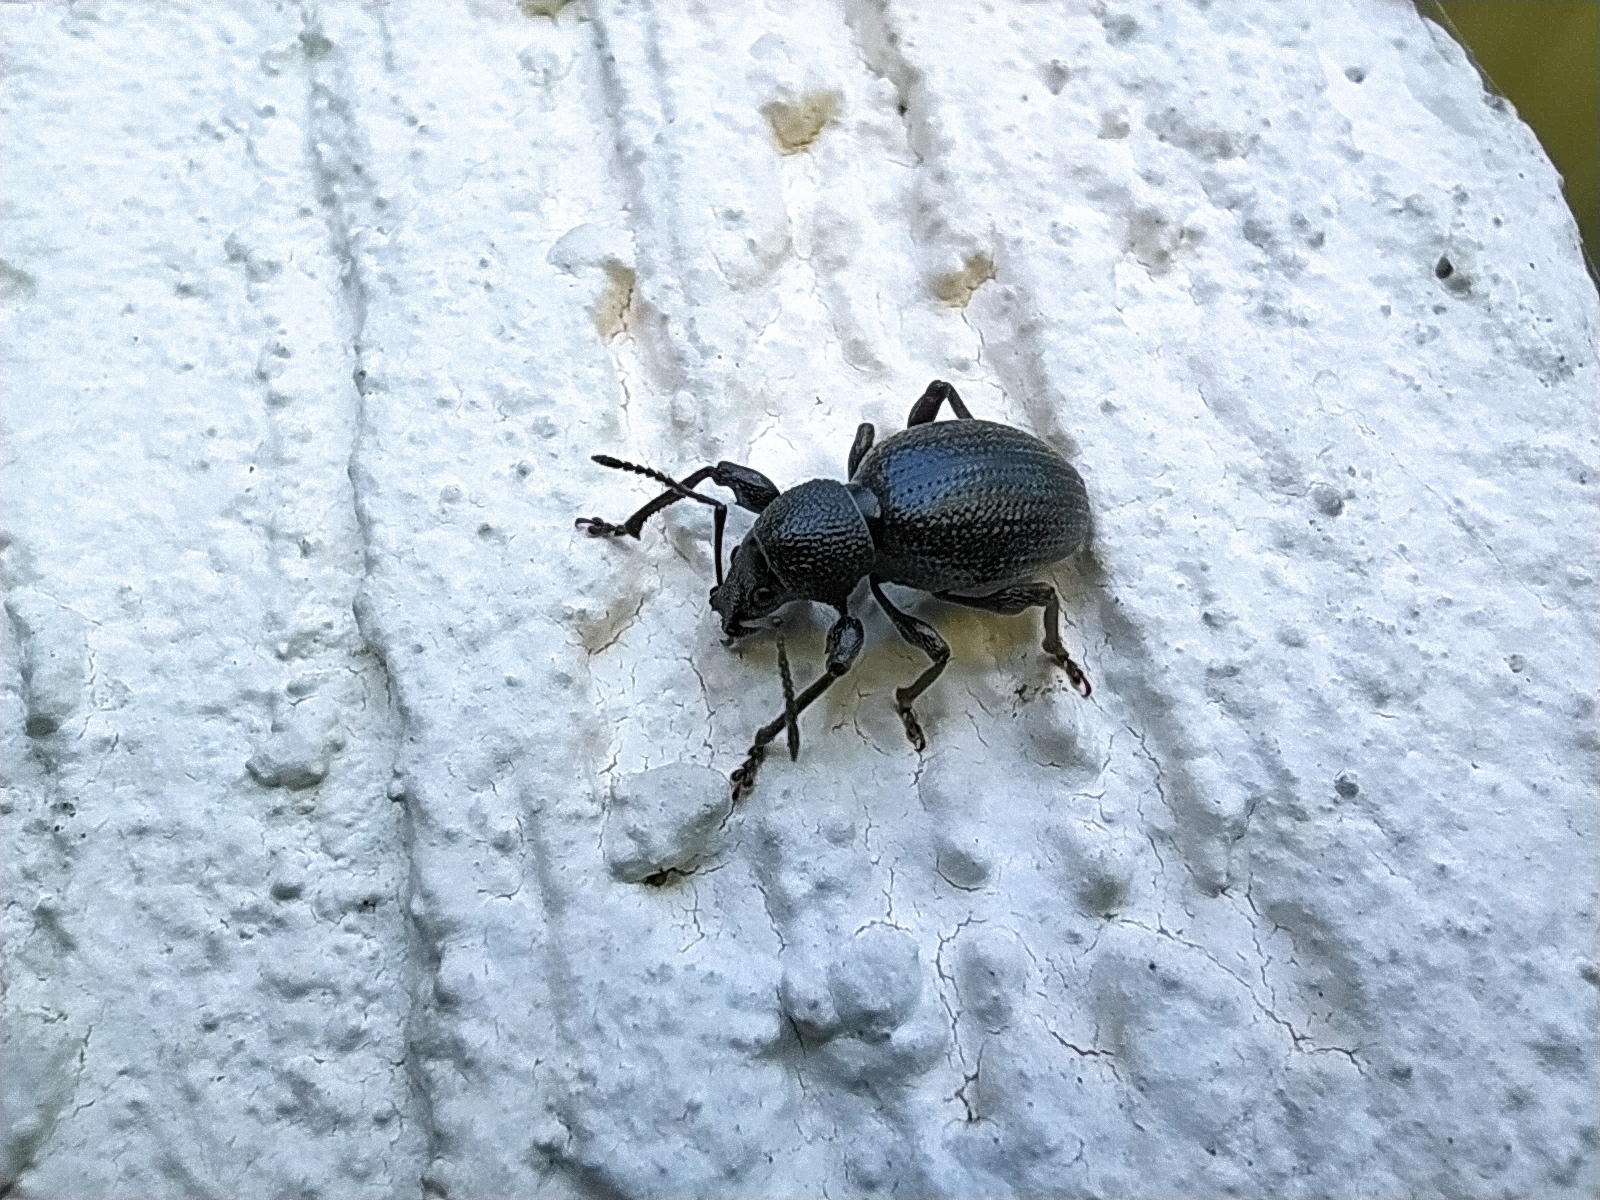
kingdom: Animalia
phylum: Arthropoda
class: Insecta
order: Coleoptera
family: Curculionidae
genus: Otiorhynchus
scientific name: Otiorhynchus ovalipennis
